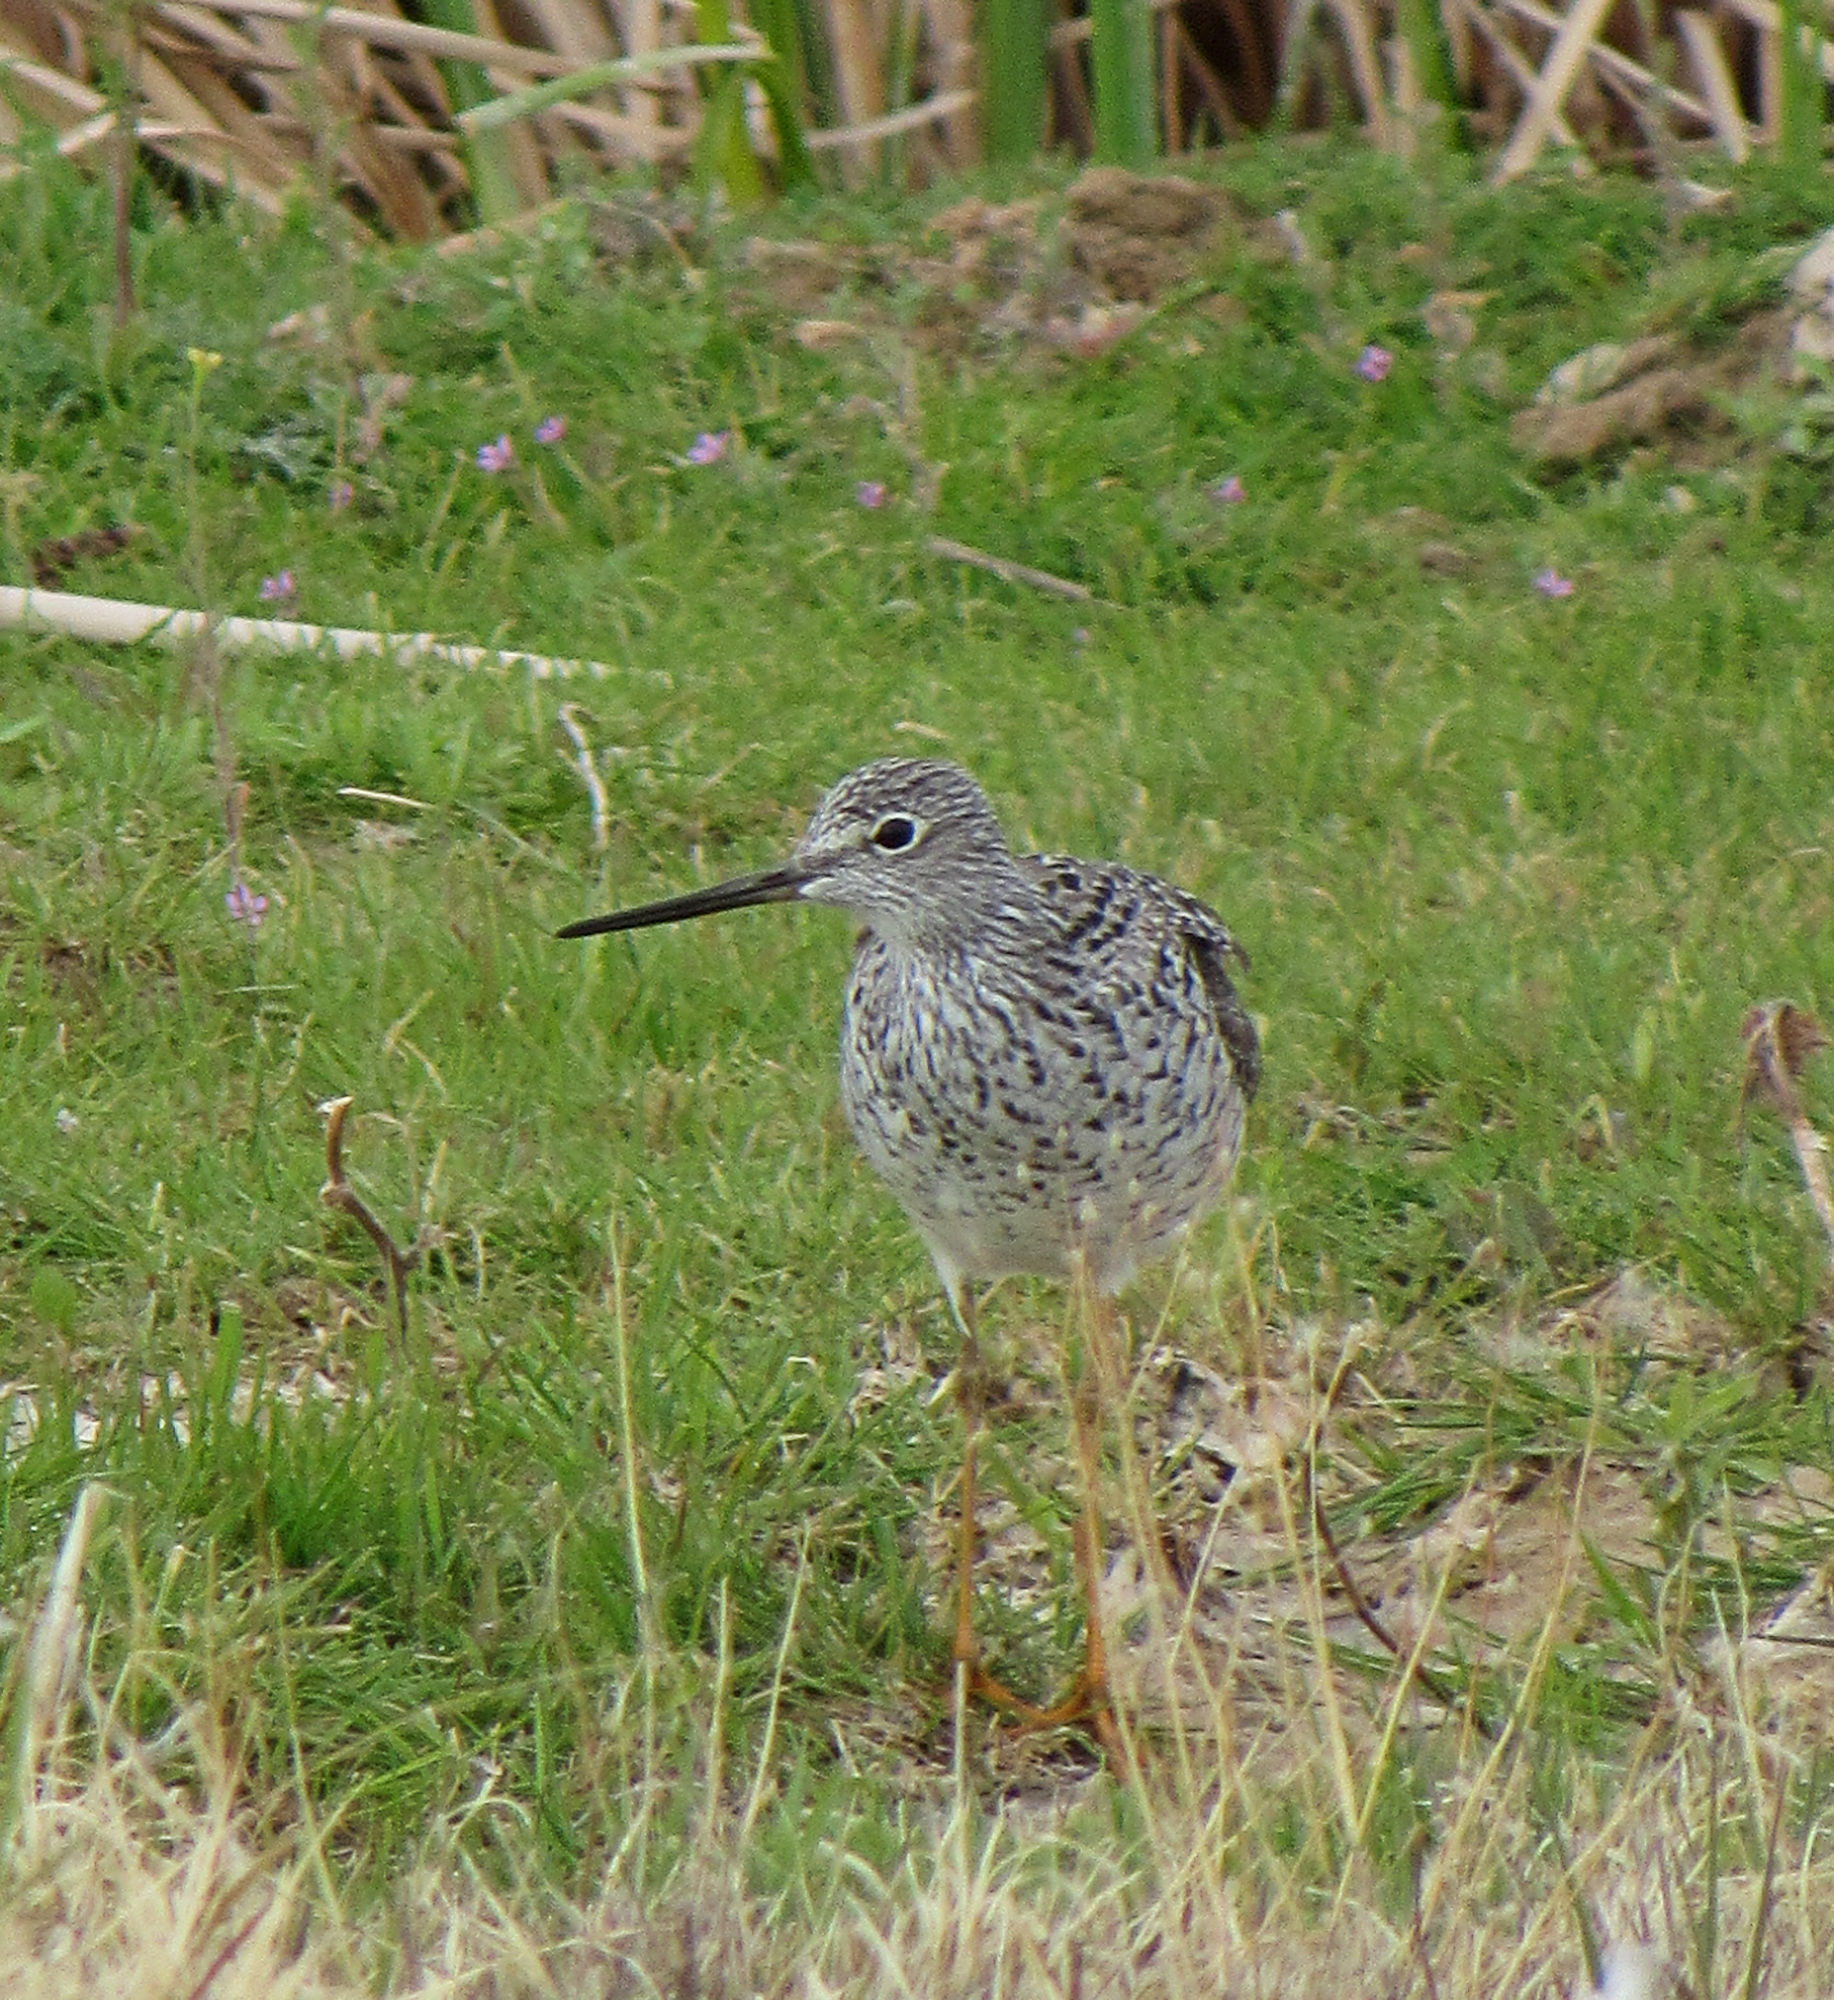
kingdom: Animalia
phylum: Chordata
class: Aves
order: Charadriiformes
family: Scolopacidae
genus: Tringa
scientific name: Tringa melanoleuca
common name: Greater yellowlegs
